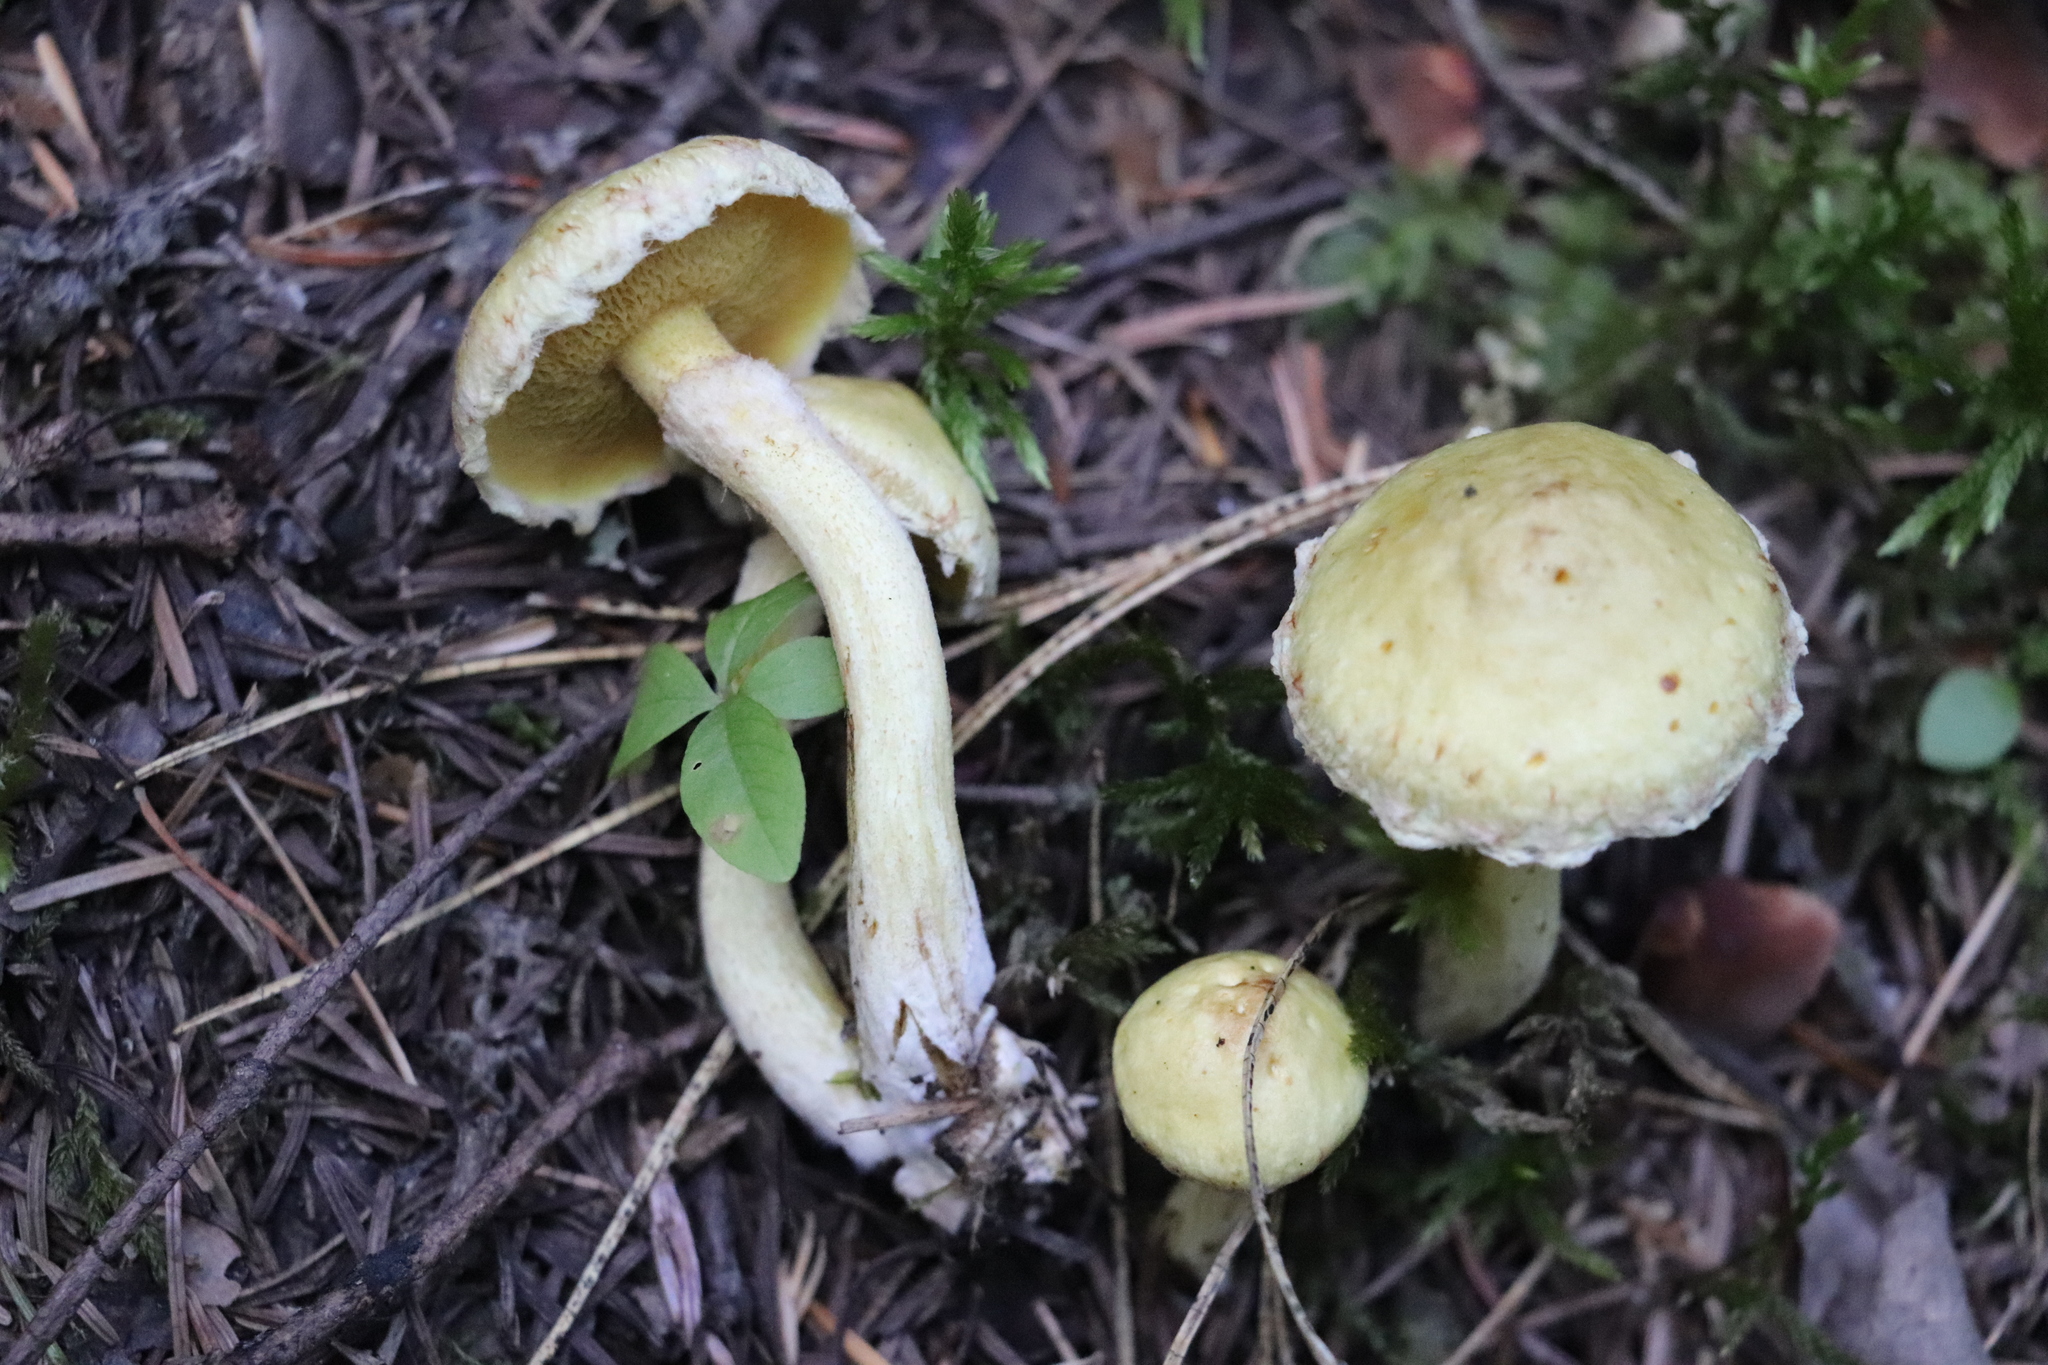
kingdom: Fungi
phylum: Basidiomycota
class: Agaricomycetes
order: Boletales
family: Suillaceae
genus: Suillus
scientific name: Suillus americanus
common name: Chicken fat mushroom
